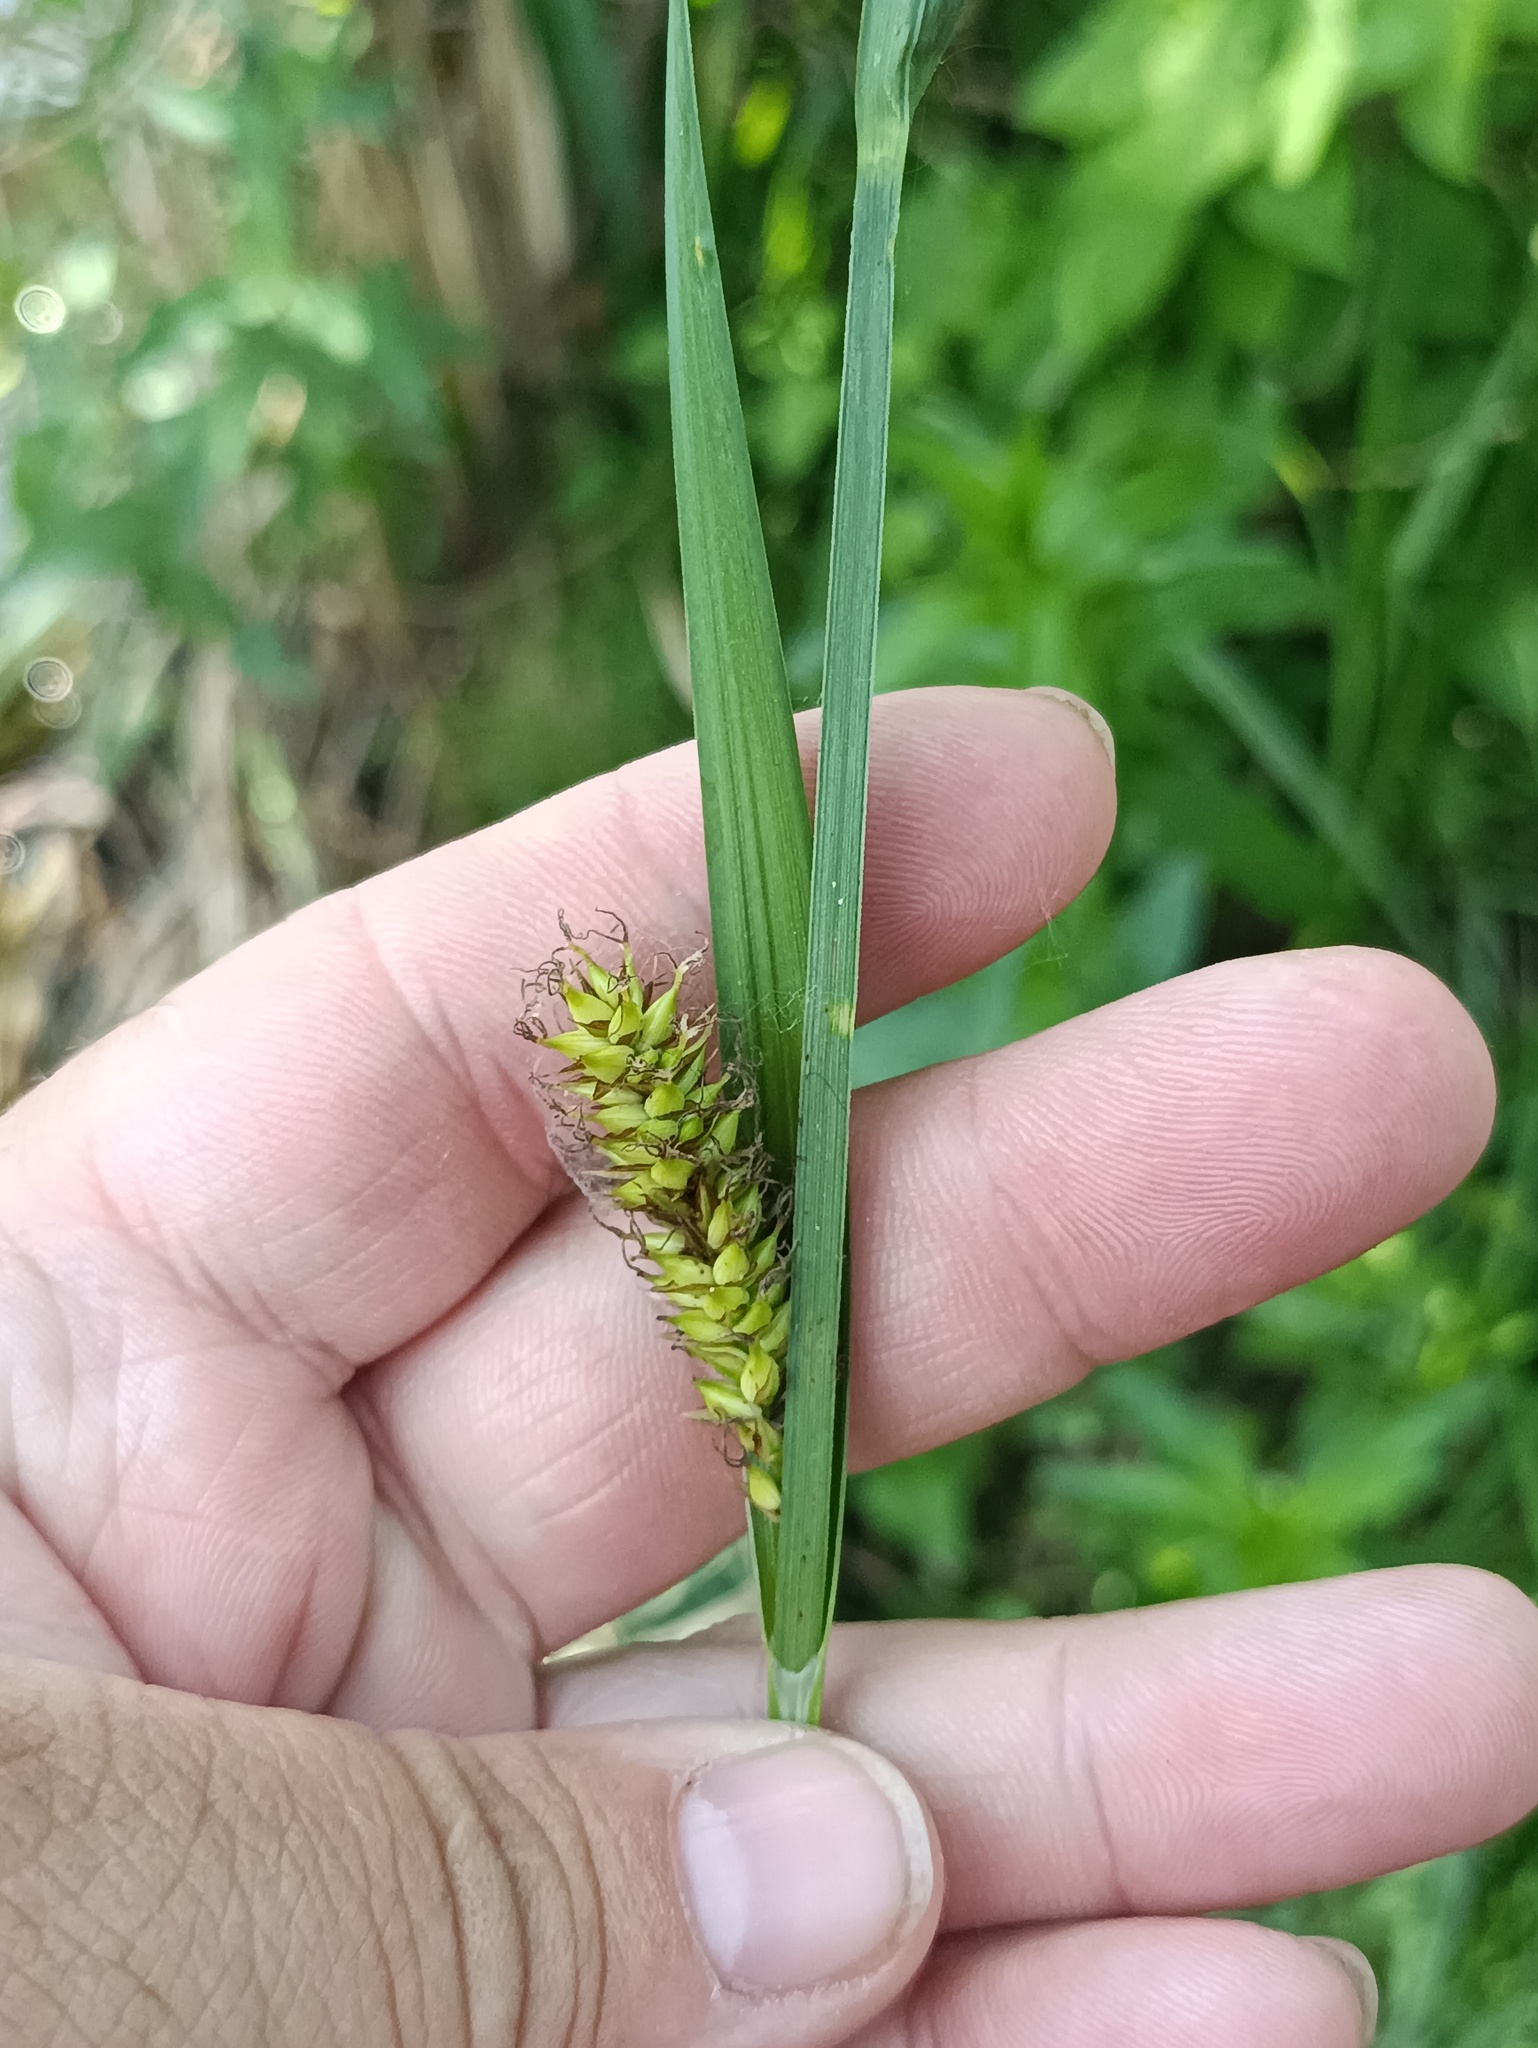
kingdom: Plantae
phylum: Tracheophyta
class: Liliopsida
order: Poales
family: Cyperaceae
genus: Carex
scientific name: Carex riparia
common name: Greater pond-sedge
